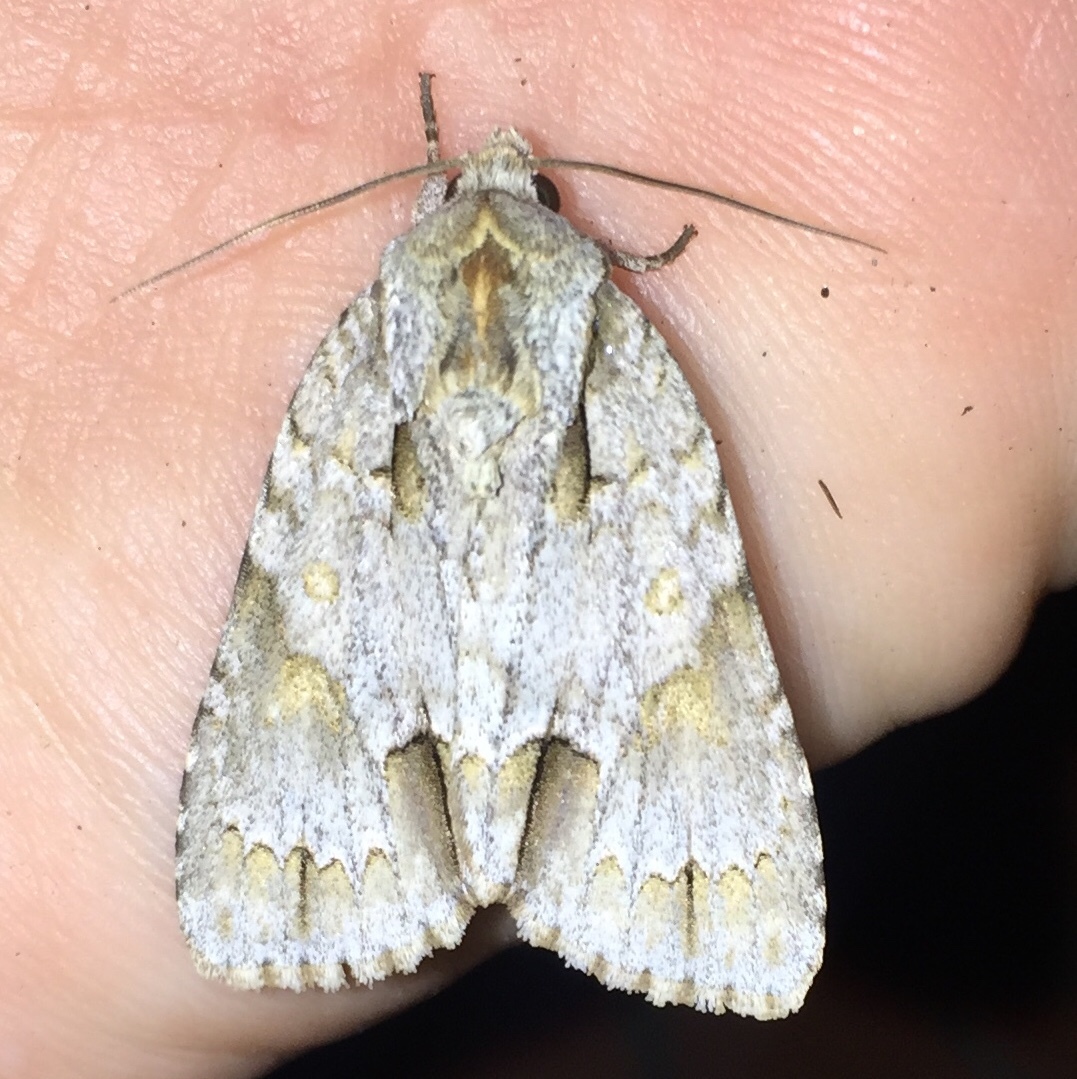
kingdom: Animalia
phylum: Arthropoda
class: Insecta
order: Lepidoptera
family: Noctuidae
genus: Acronicta
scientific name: Acronicta morula
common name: Ochre dagger
